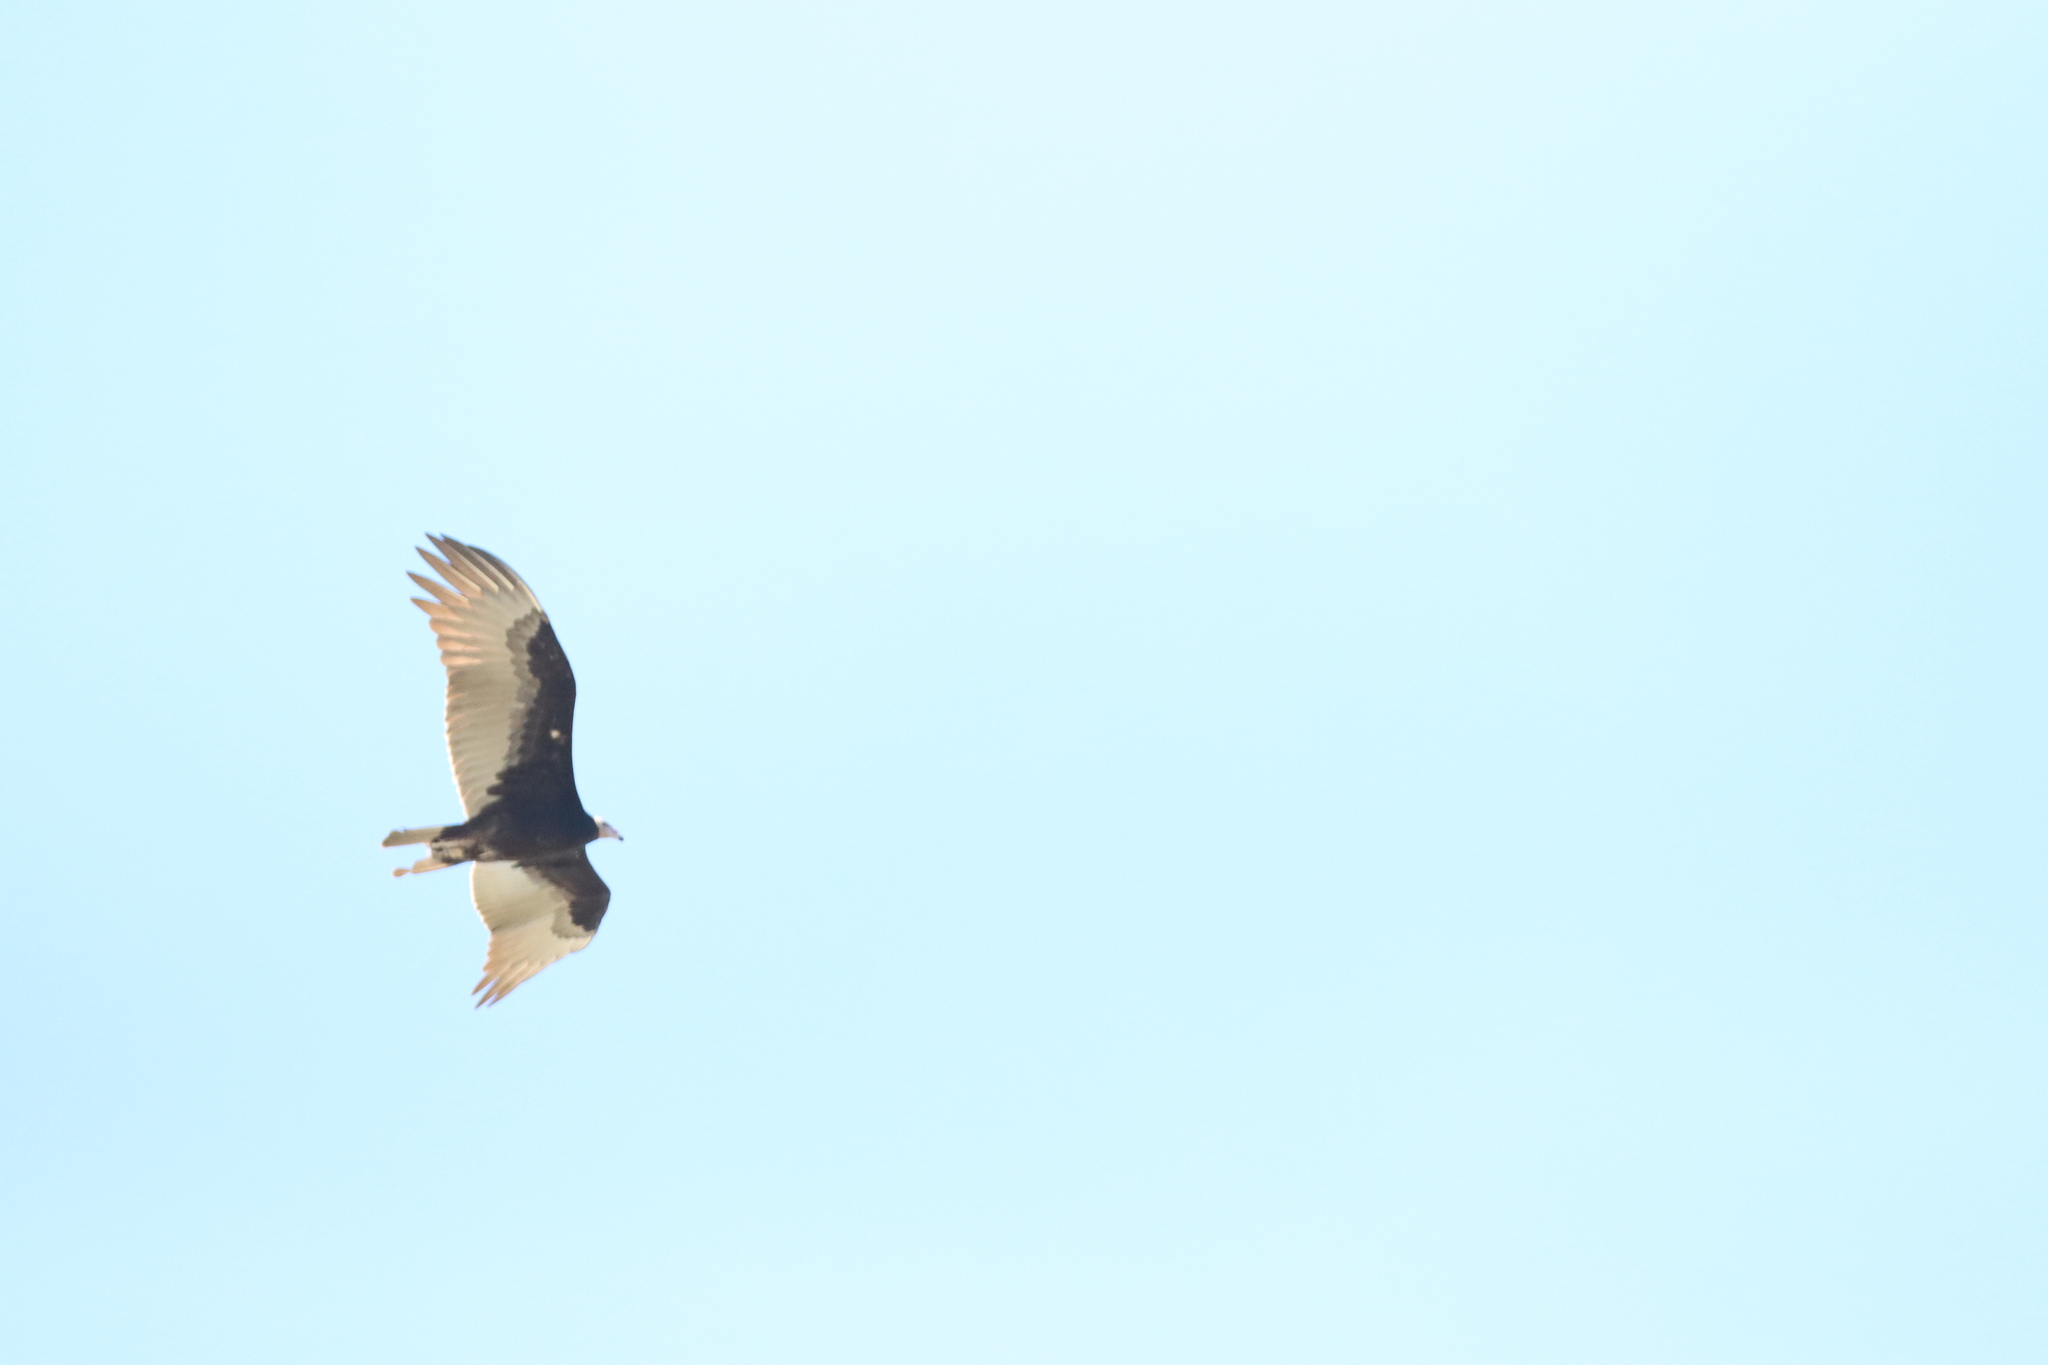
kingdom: Animalia
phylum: Chordata
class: Aves
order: Accipitriformes
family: Cathartidae
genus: Cathartes
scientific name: Cathartes aura
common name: Turkey vulture
